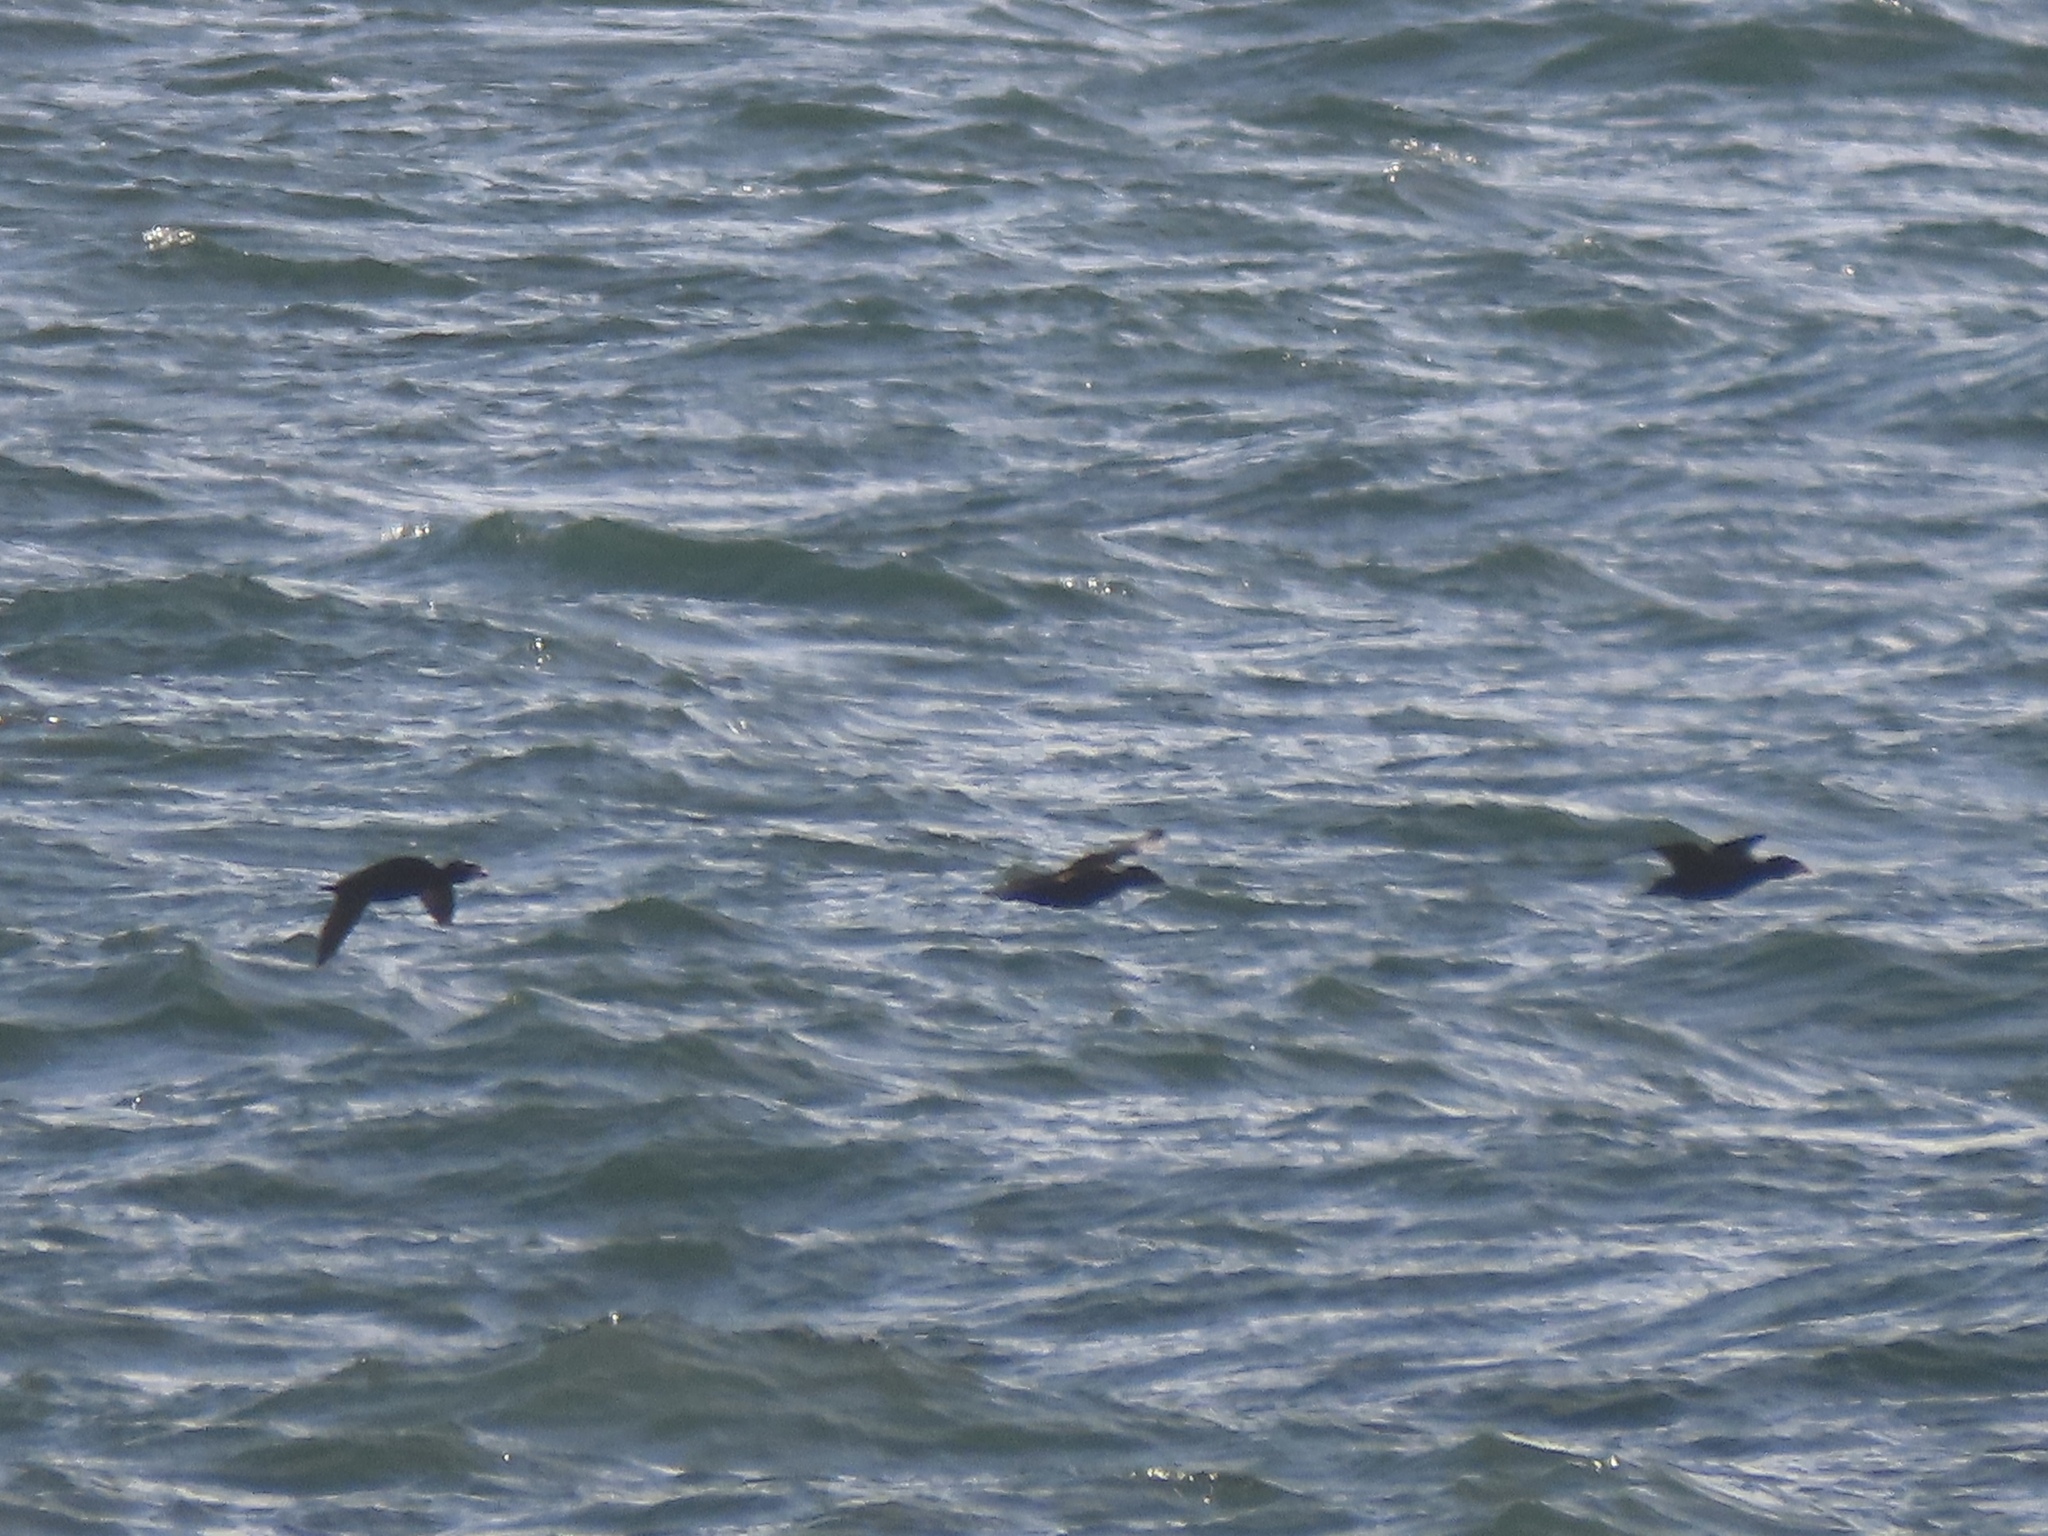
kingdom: Animalia
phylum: Chordata
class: Aves
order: Anseriformes
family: Anatidae
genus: Melanitta
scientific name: Melanitta perspicillata
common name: Surf scoter
